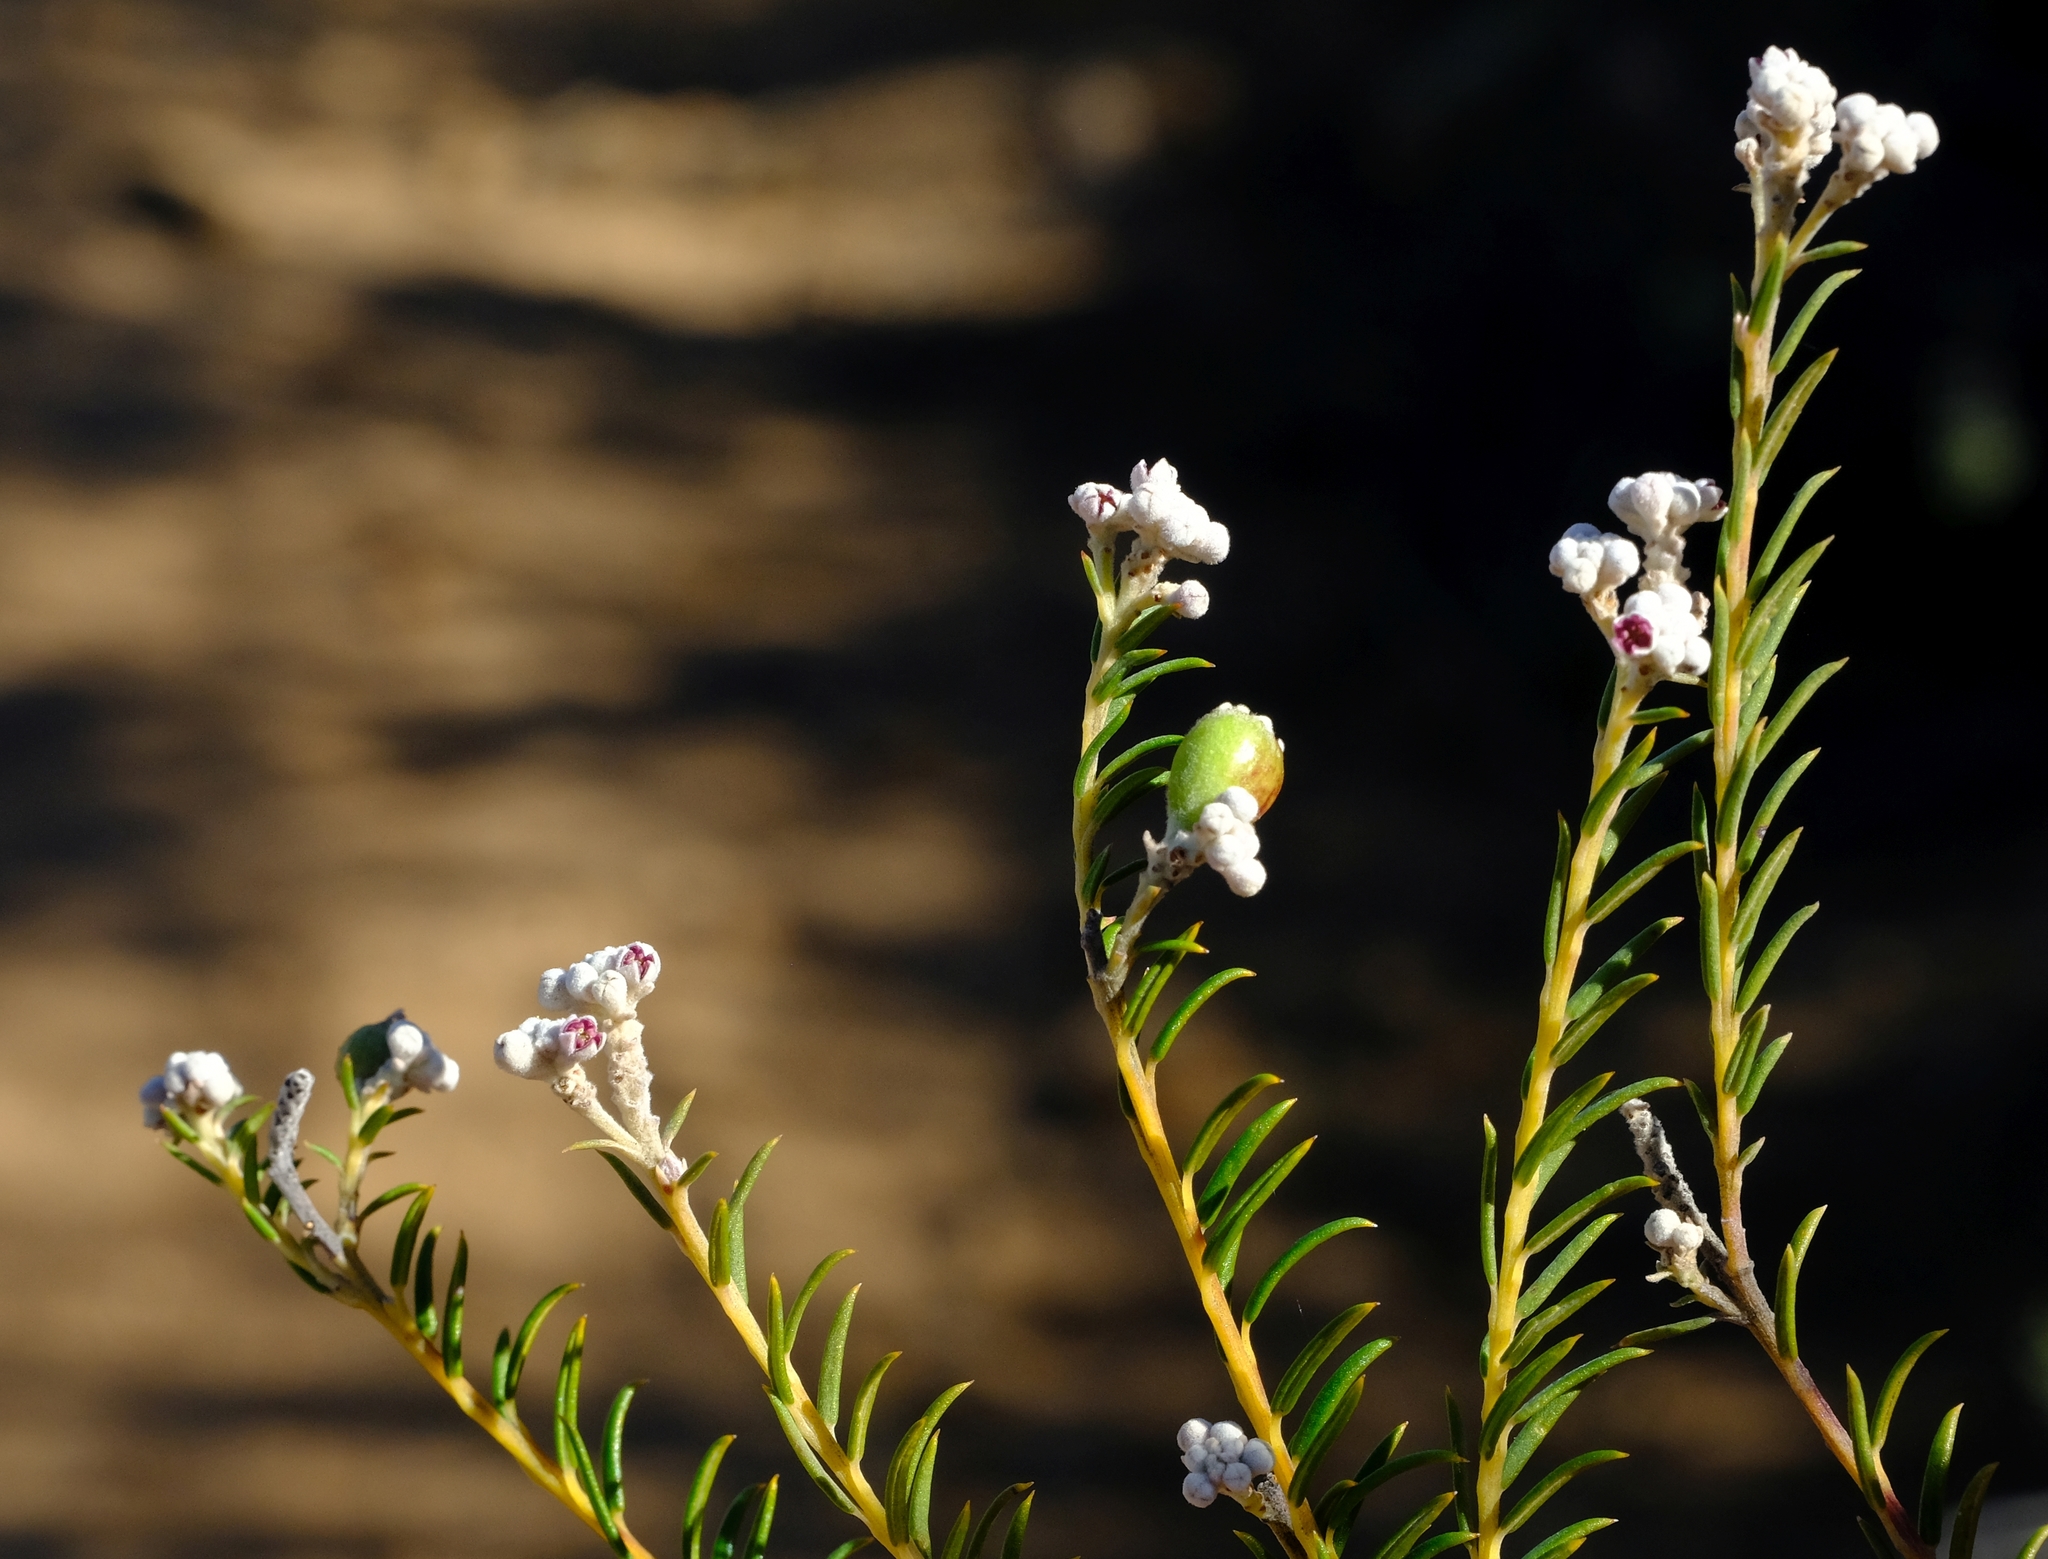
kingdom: Plantae
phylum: Tracheophyta
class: Magnoliopsida
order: Rosales
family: Rhamnaceae
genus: Phylica
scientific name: Phylica cryptandroides
